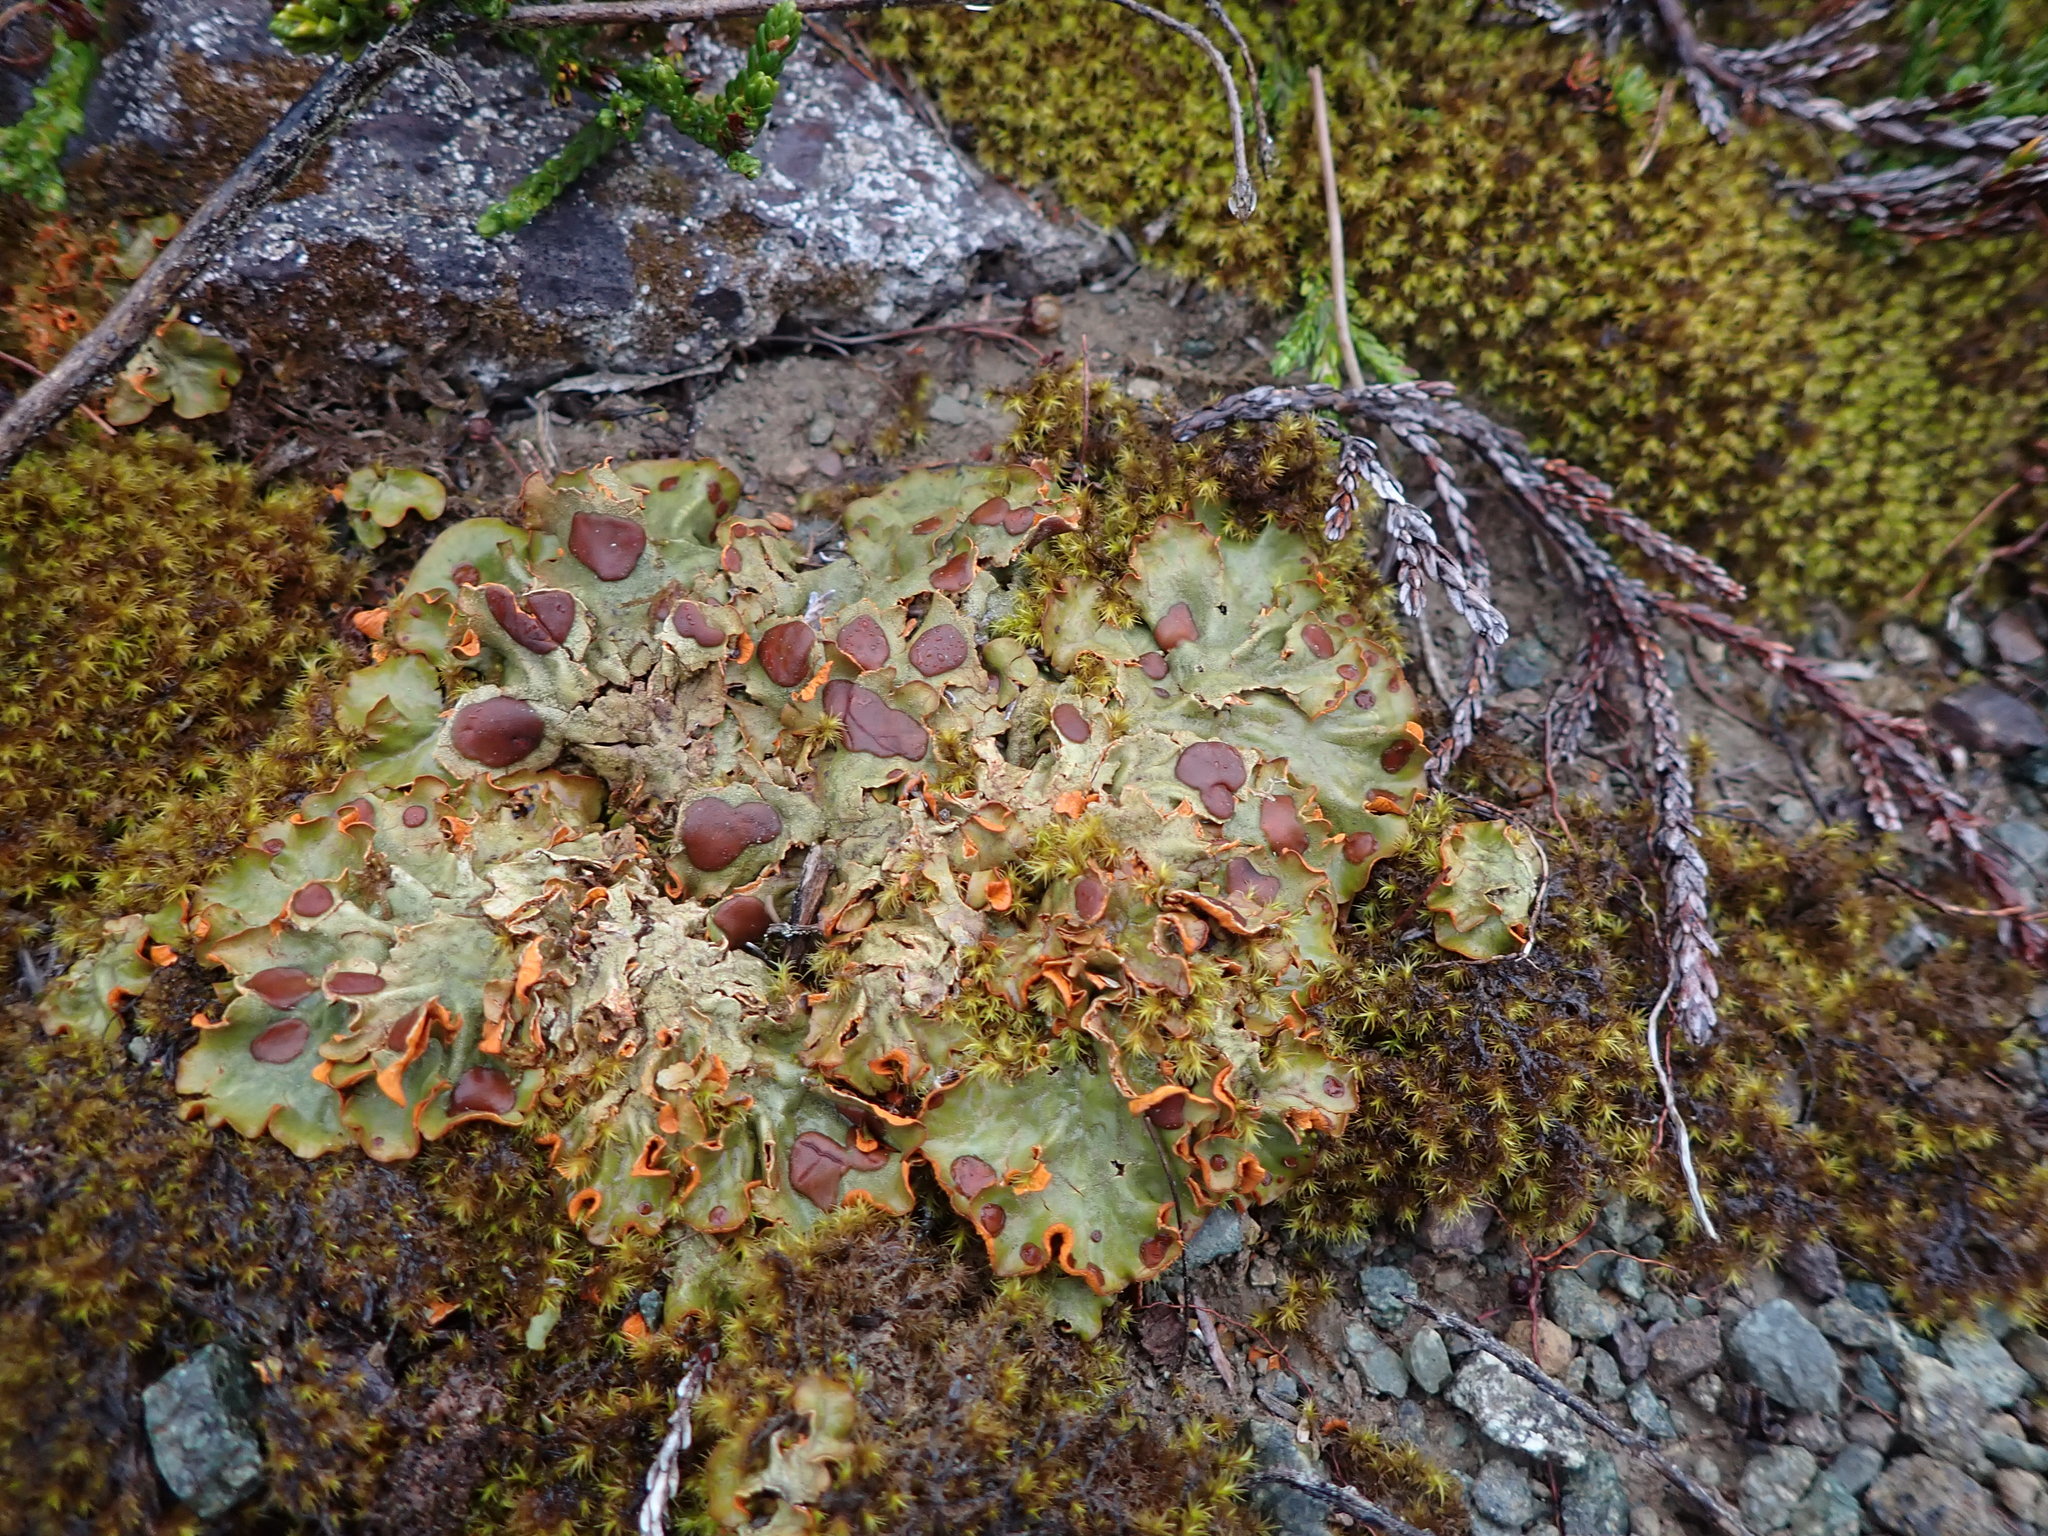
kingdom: Fungi
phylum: Ascomycota
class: Lecanoromycetes
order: Peltigerales
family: Peltigeraceae
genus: Solorina
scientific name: Solorina crocea
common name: Mountain saffron
